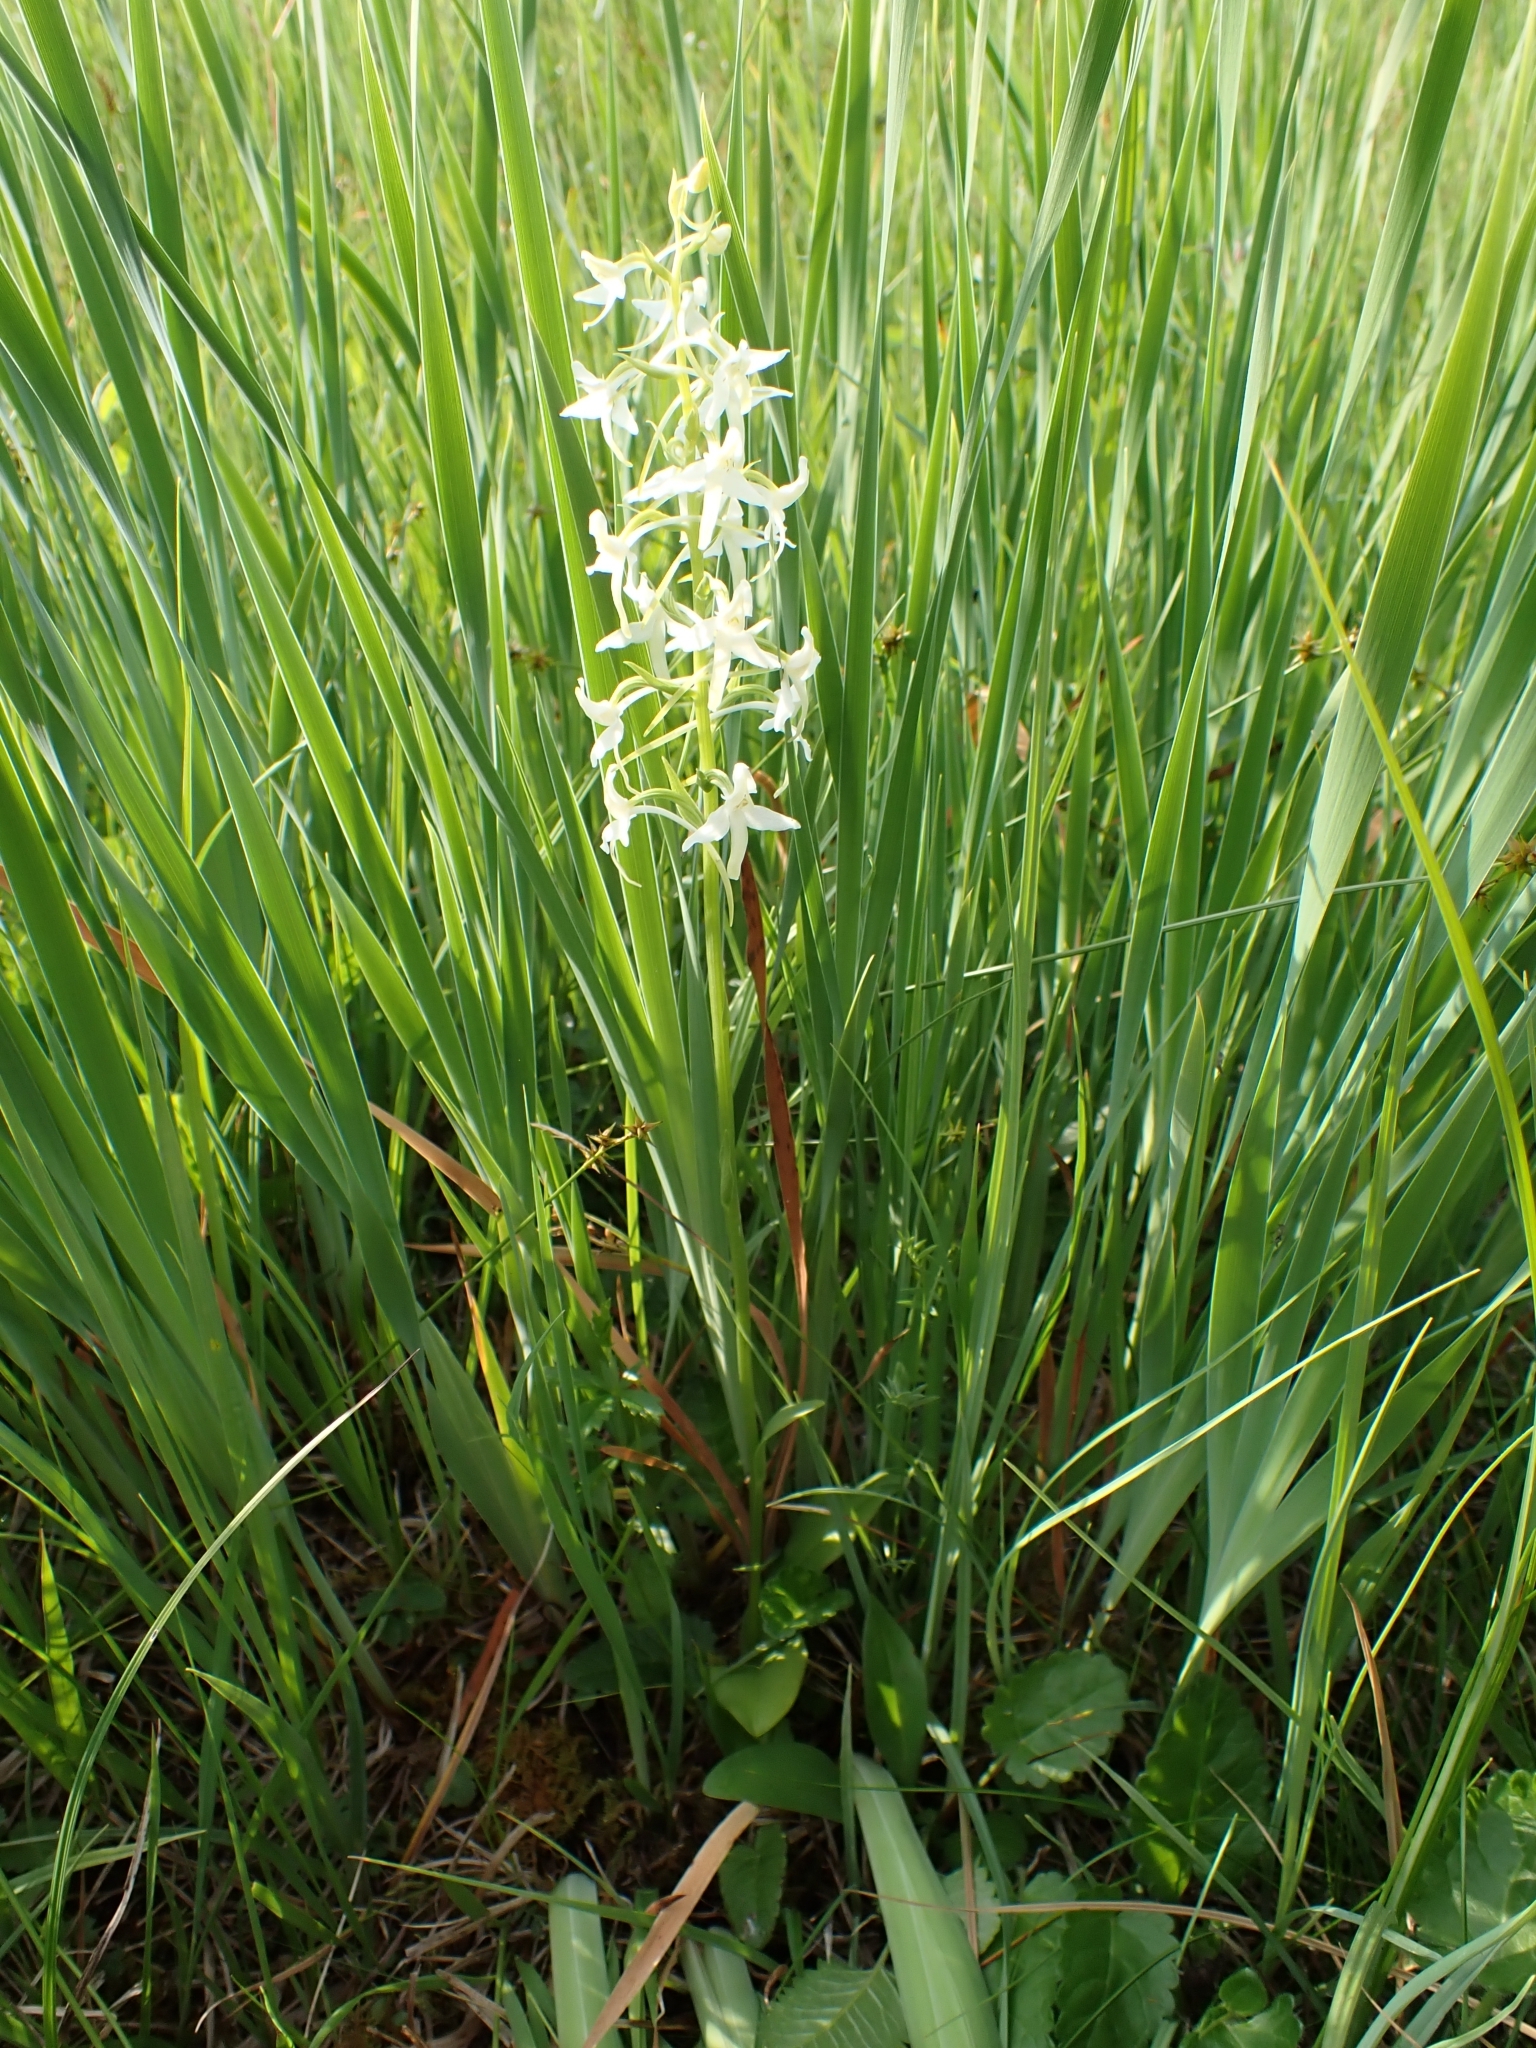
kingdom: Plantae
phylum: Tracheophyta
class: Liliopsida
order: Asparagales
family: Orchidaceae
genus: Platanthera
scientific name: Platanthera bifolia
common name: Lesser butterfly-orchid
